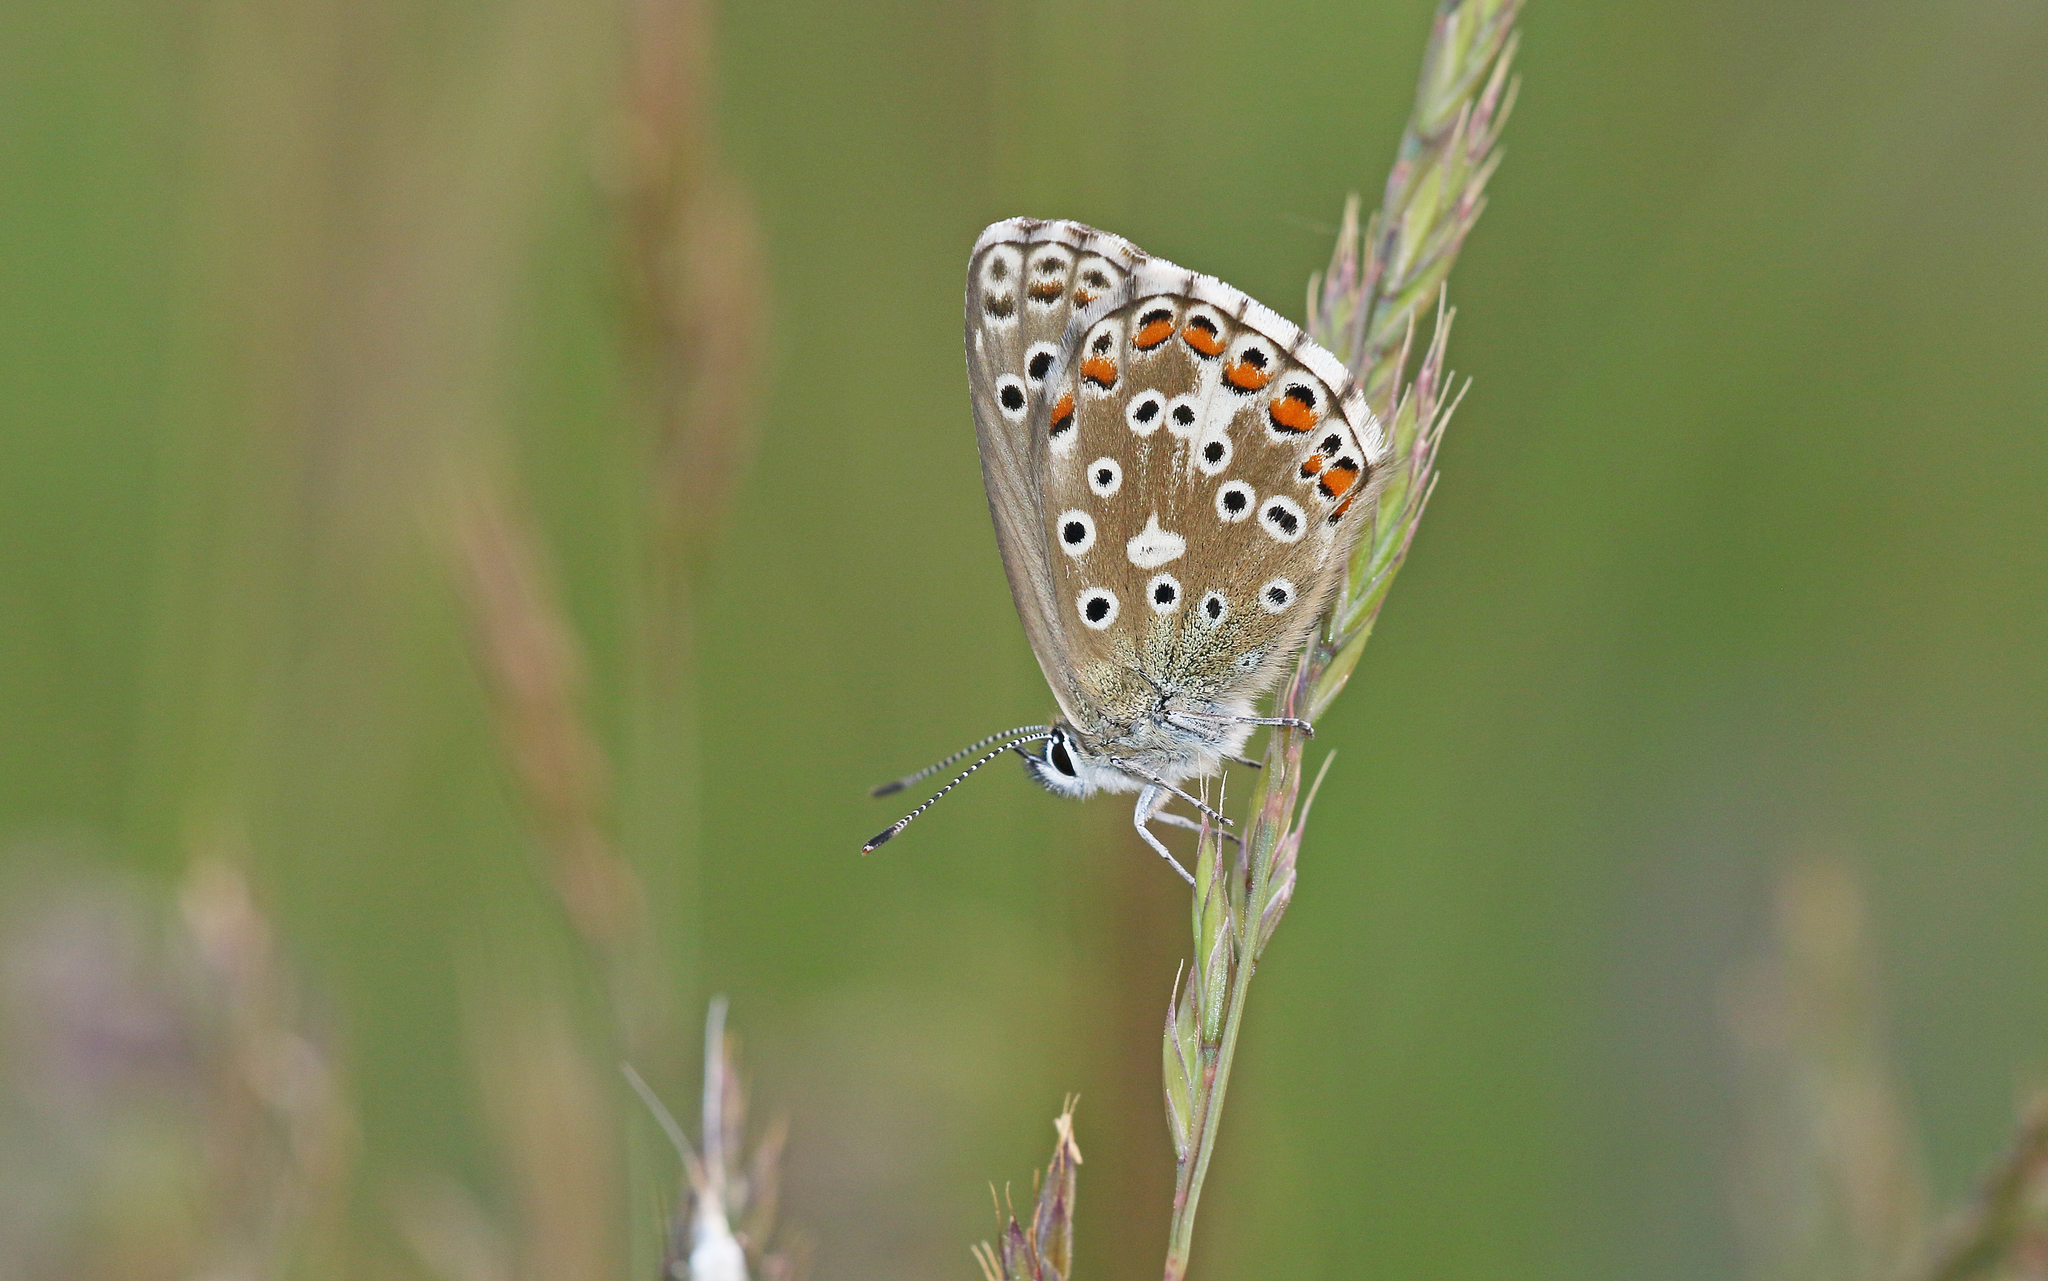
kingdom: Animalia
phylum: Arthropoda
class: Insecta
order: Lepidoptera
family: Lycaenidae
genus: Lysandra
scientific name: Lysandra bellargus
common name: Adonis blue
